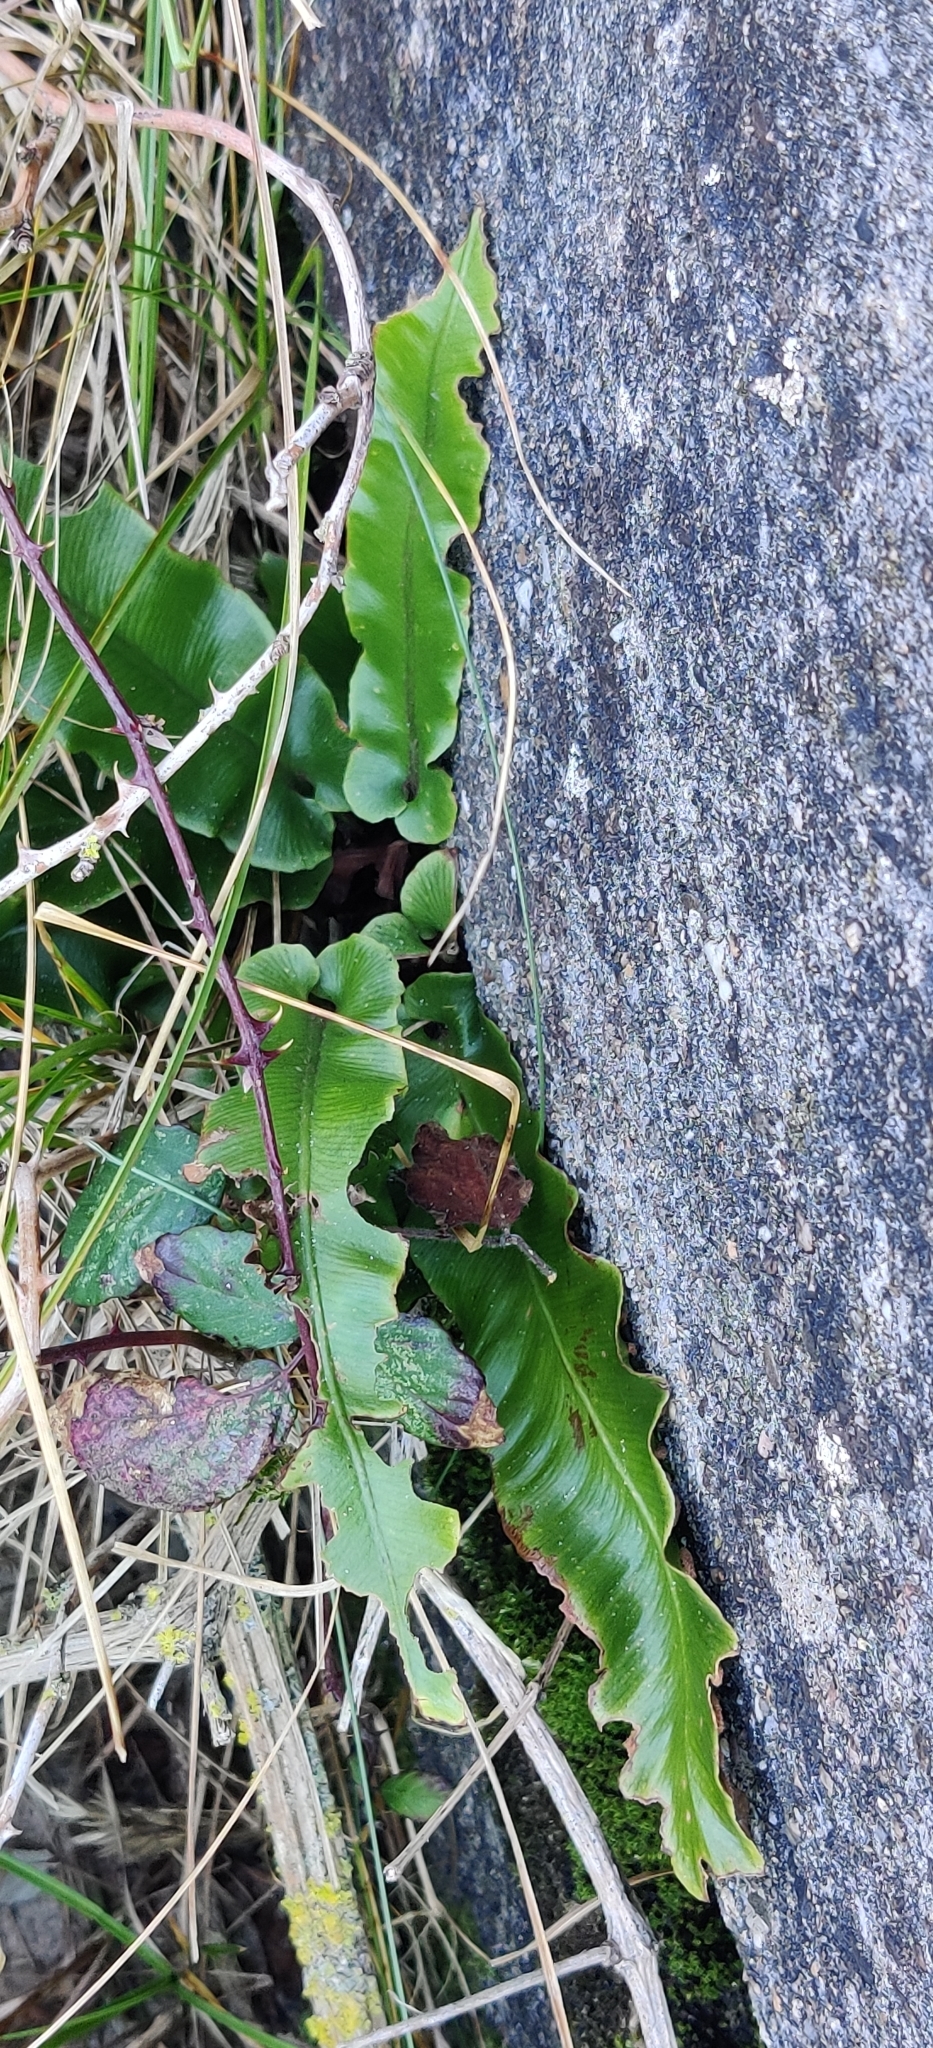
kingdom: Plantae
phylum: Tracheophyta
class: Polypodiopsida
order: Polypodiales
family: Aspleniaceae
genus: Asplenium
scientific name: Asplenium scolopendrium
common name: Hart's-tongue fern
